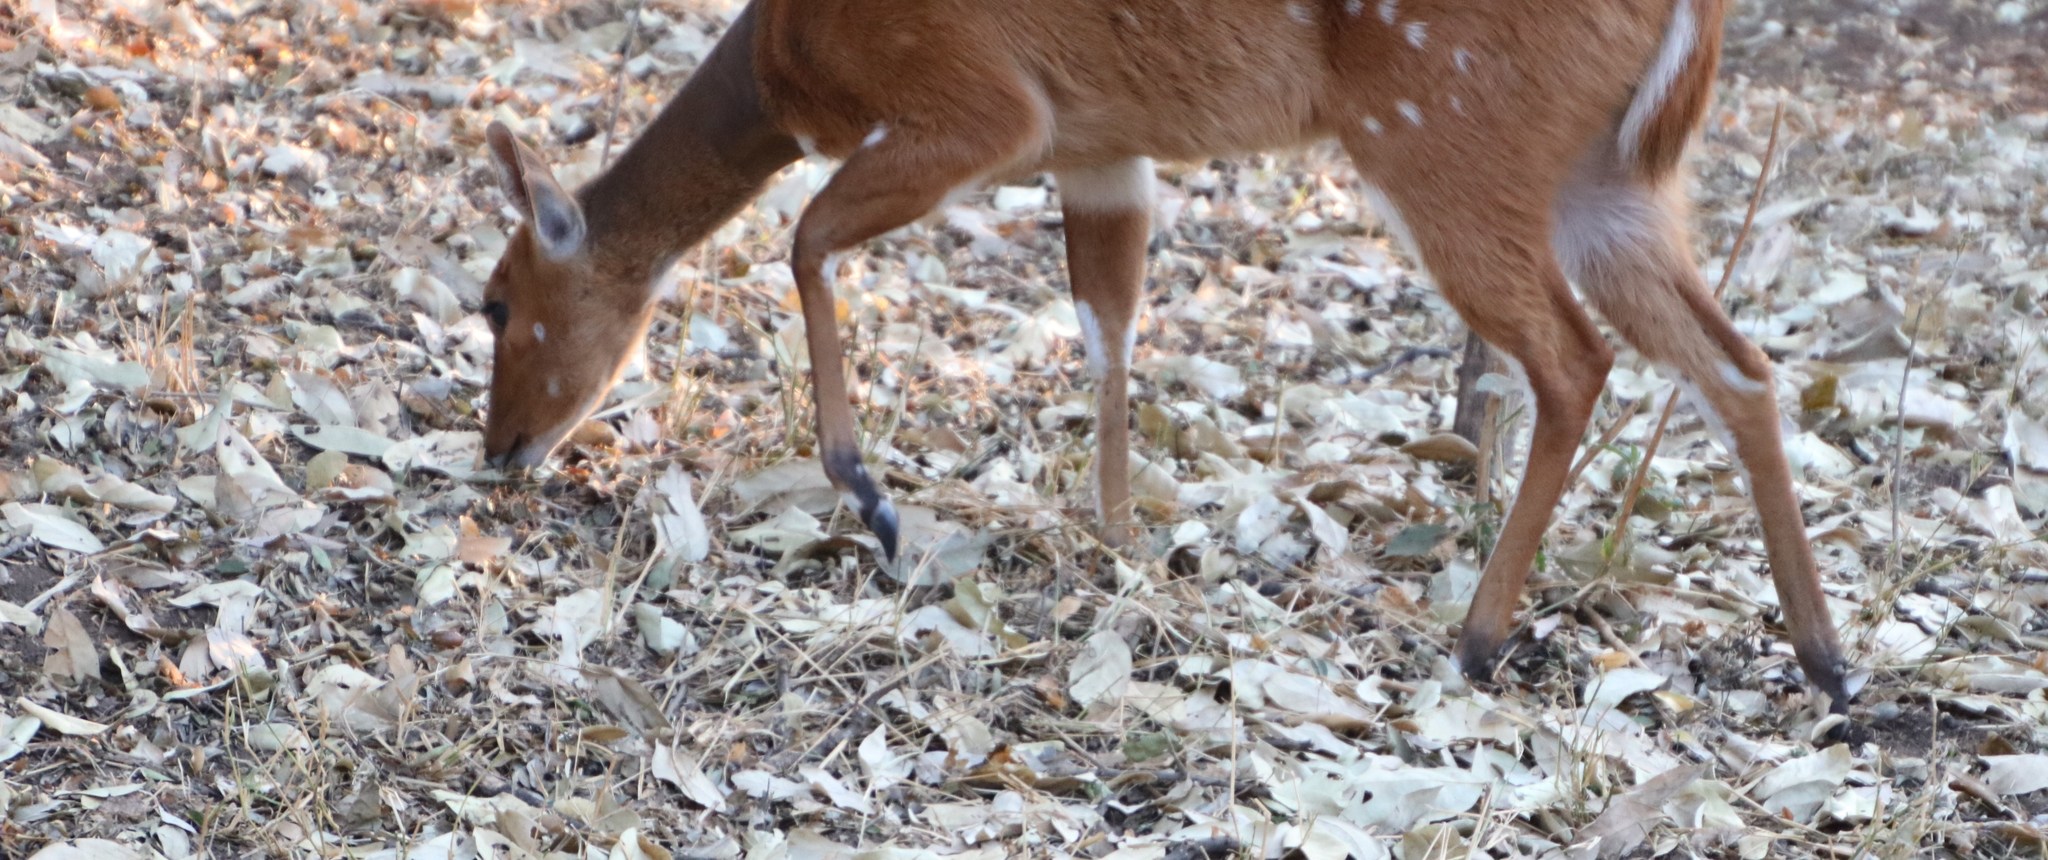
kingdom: Animalia
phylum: Chordata
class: Mammalia
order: Artiodactyla
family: Bovidae
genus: Tragelaphus
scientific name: Tragelaphus scriptus
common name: Bushbuck
